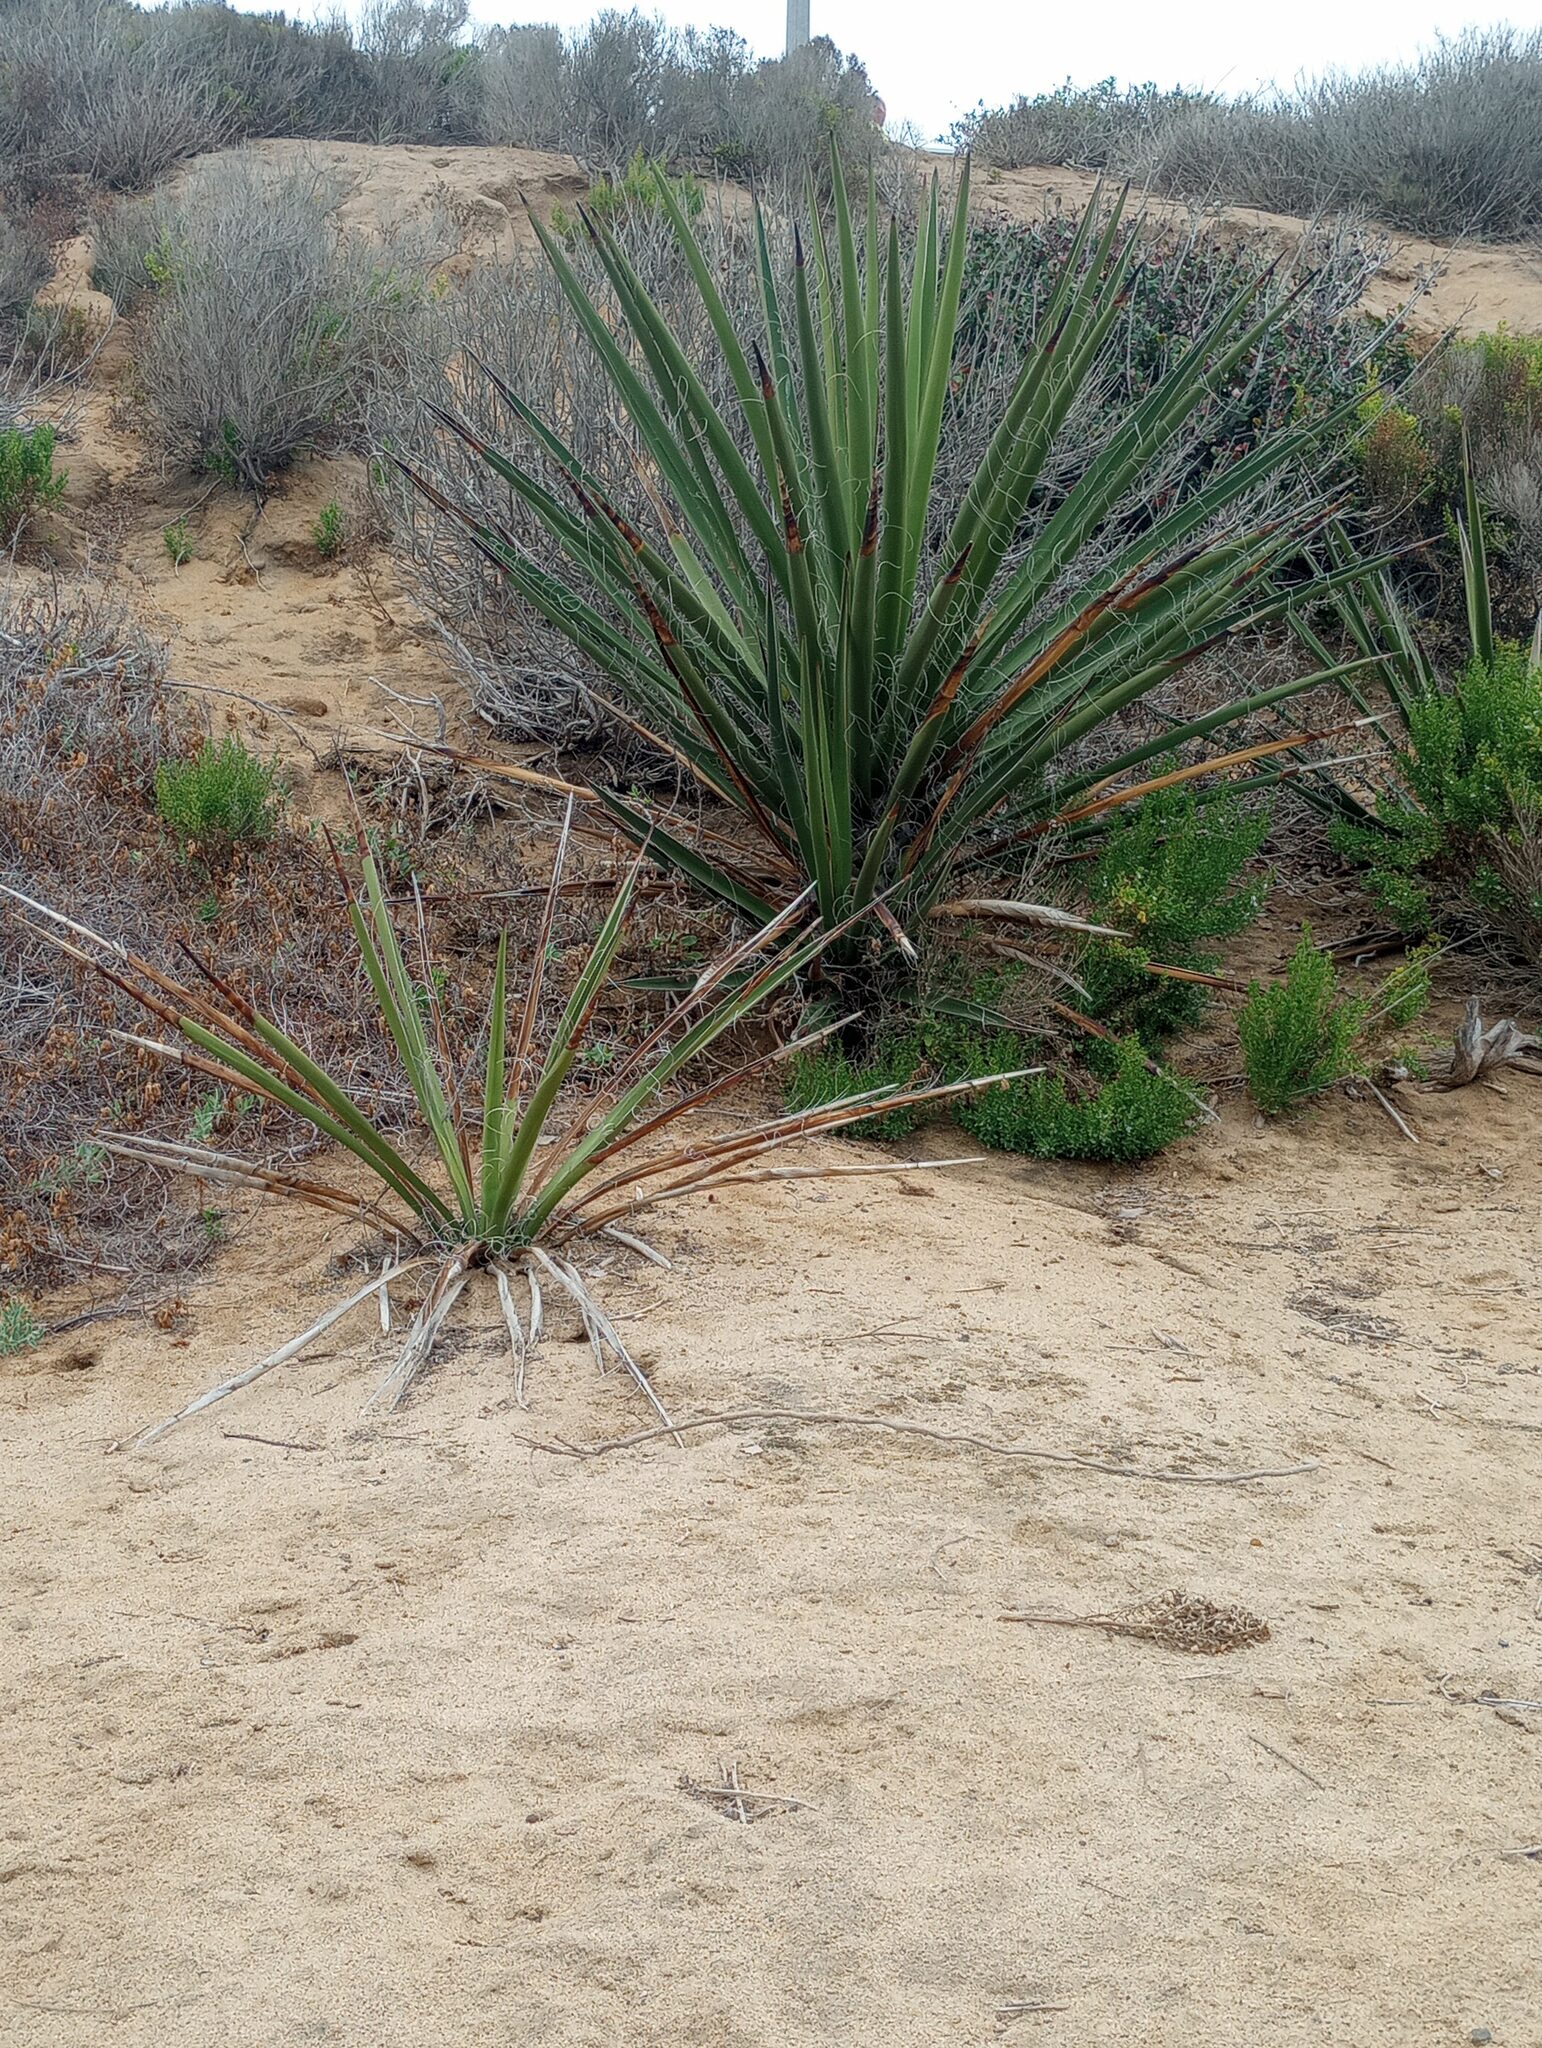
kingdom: Plantae
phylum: Tracheophyta
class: Liliopsida
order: Asparagales
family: Asparagaceae
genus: Yucca
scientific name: Yucca schidigera
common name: Mojave yucca
